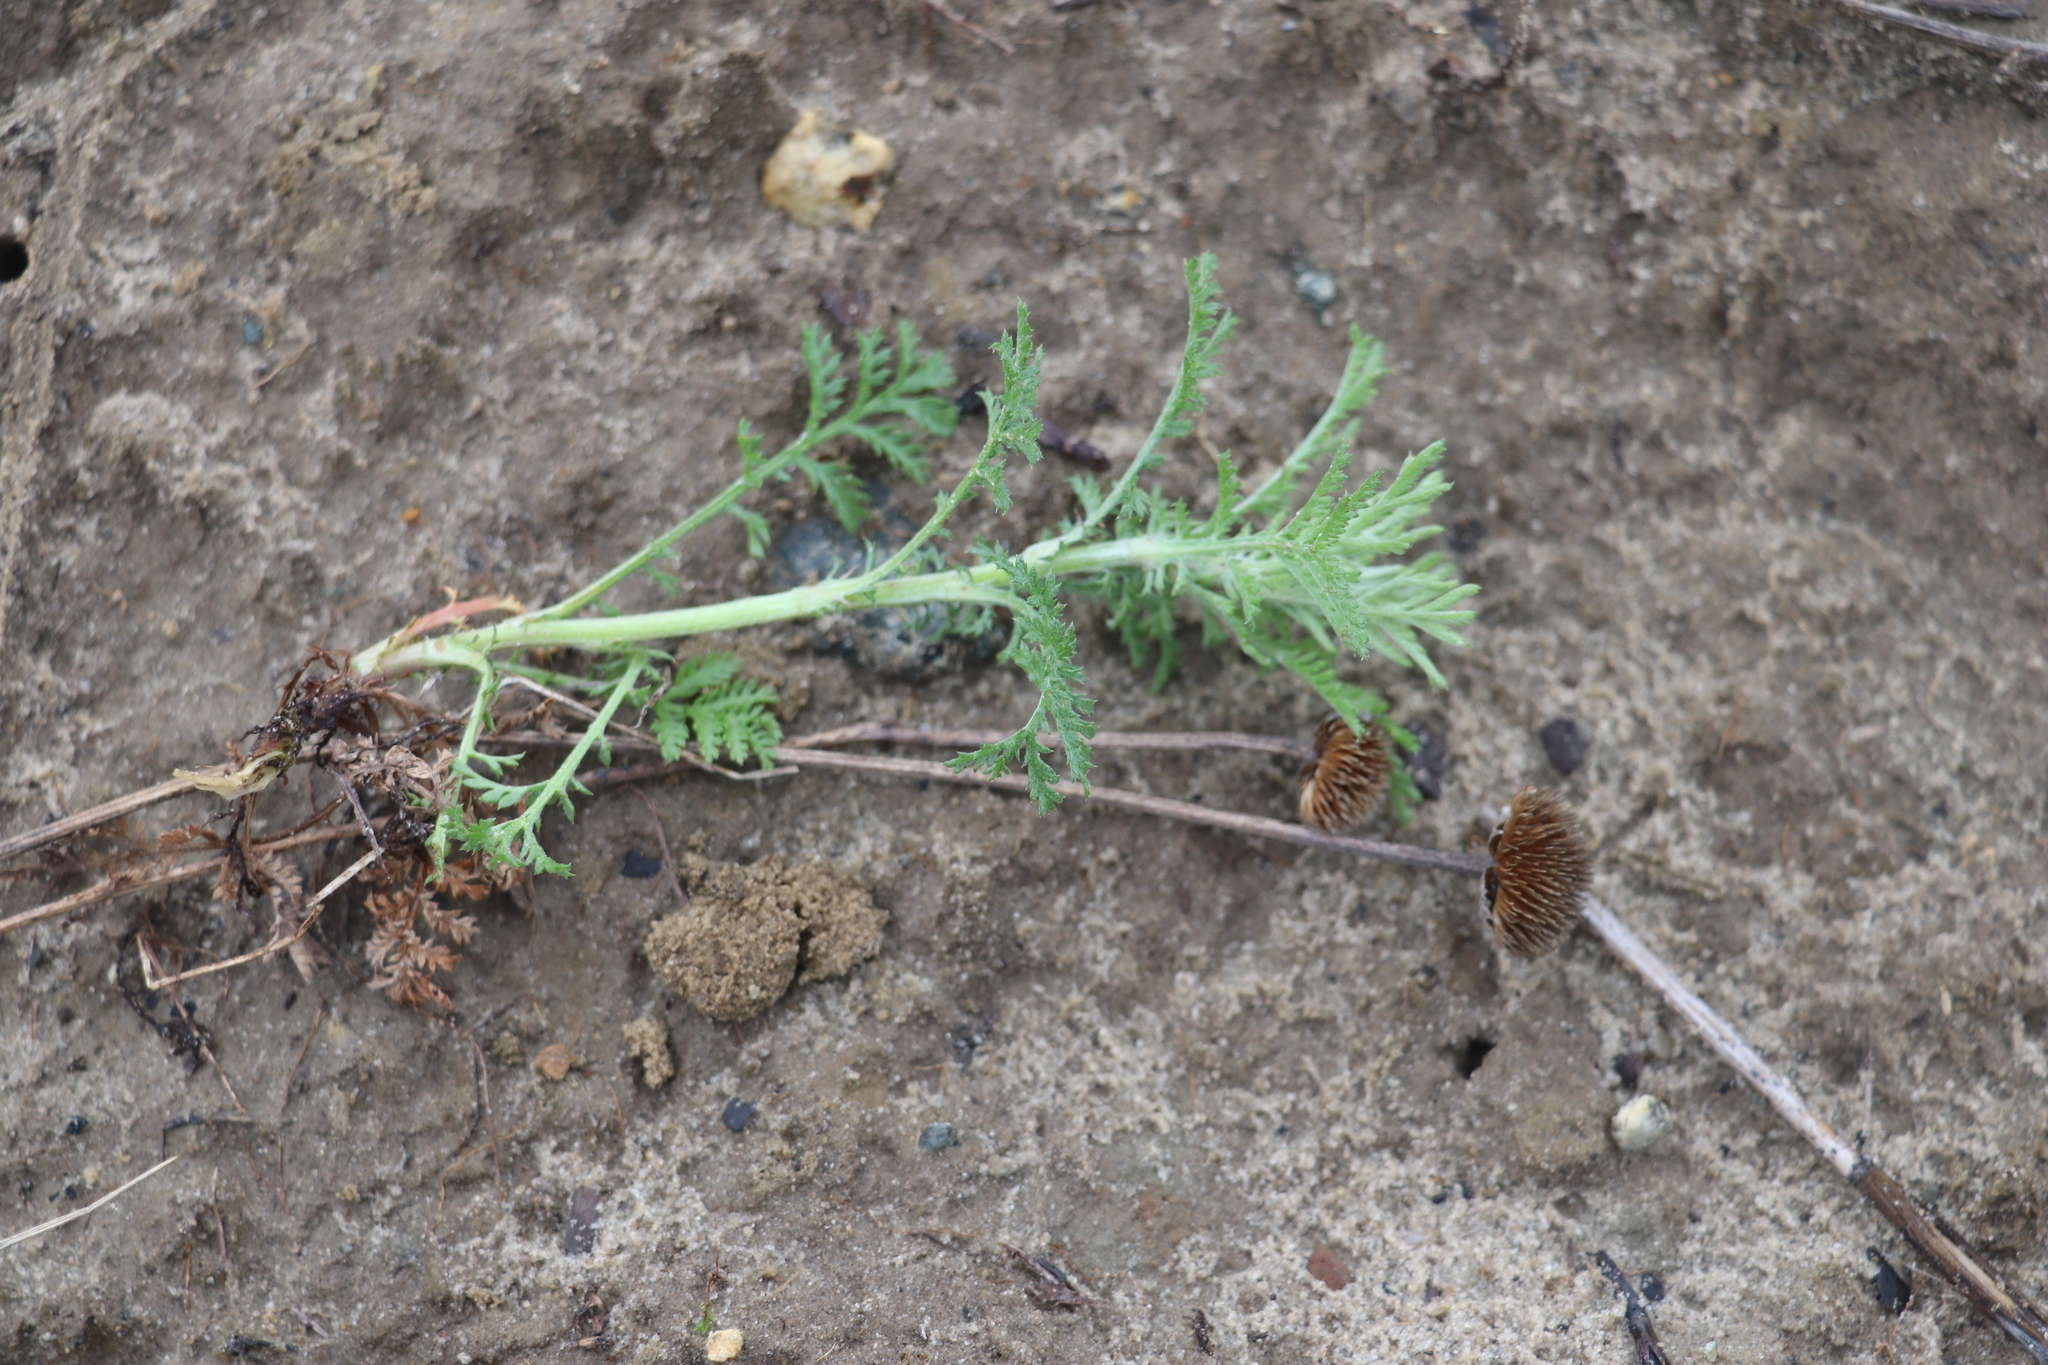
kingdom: Plantae
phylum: Tracheophyta
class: Magnoliopsida
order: Asterales
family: Asteraceae
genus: Cota
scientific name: Cota tinctoria
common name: Golden chamomile
